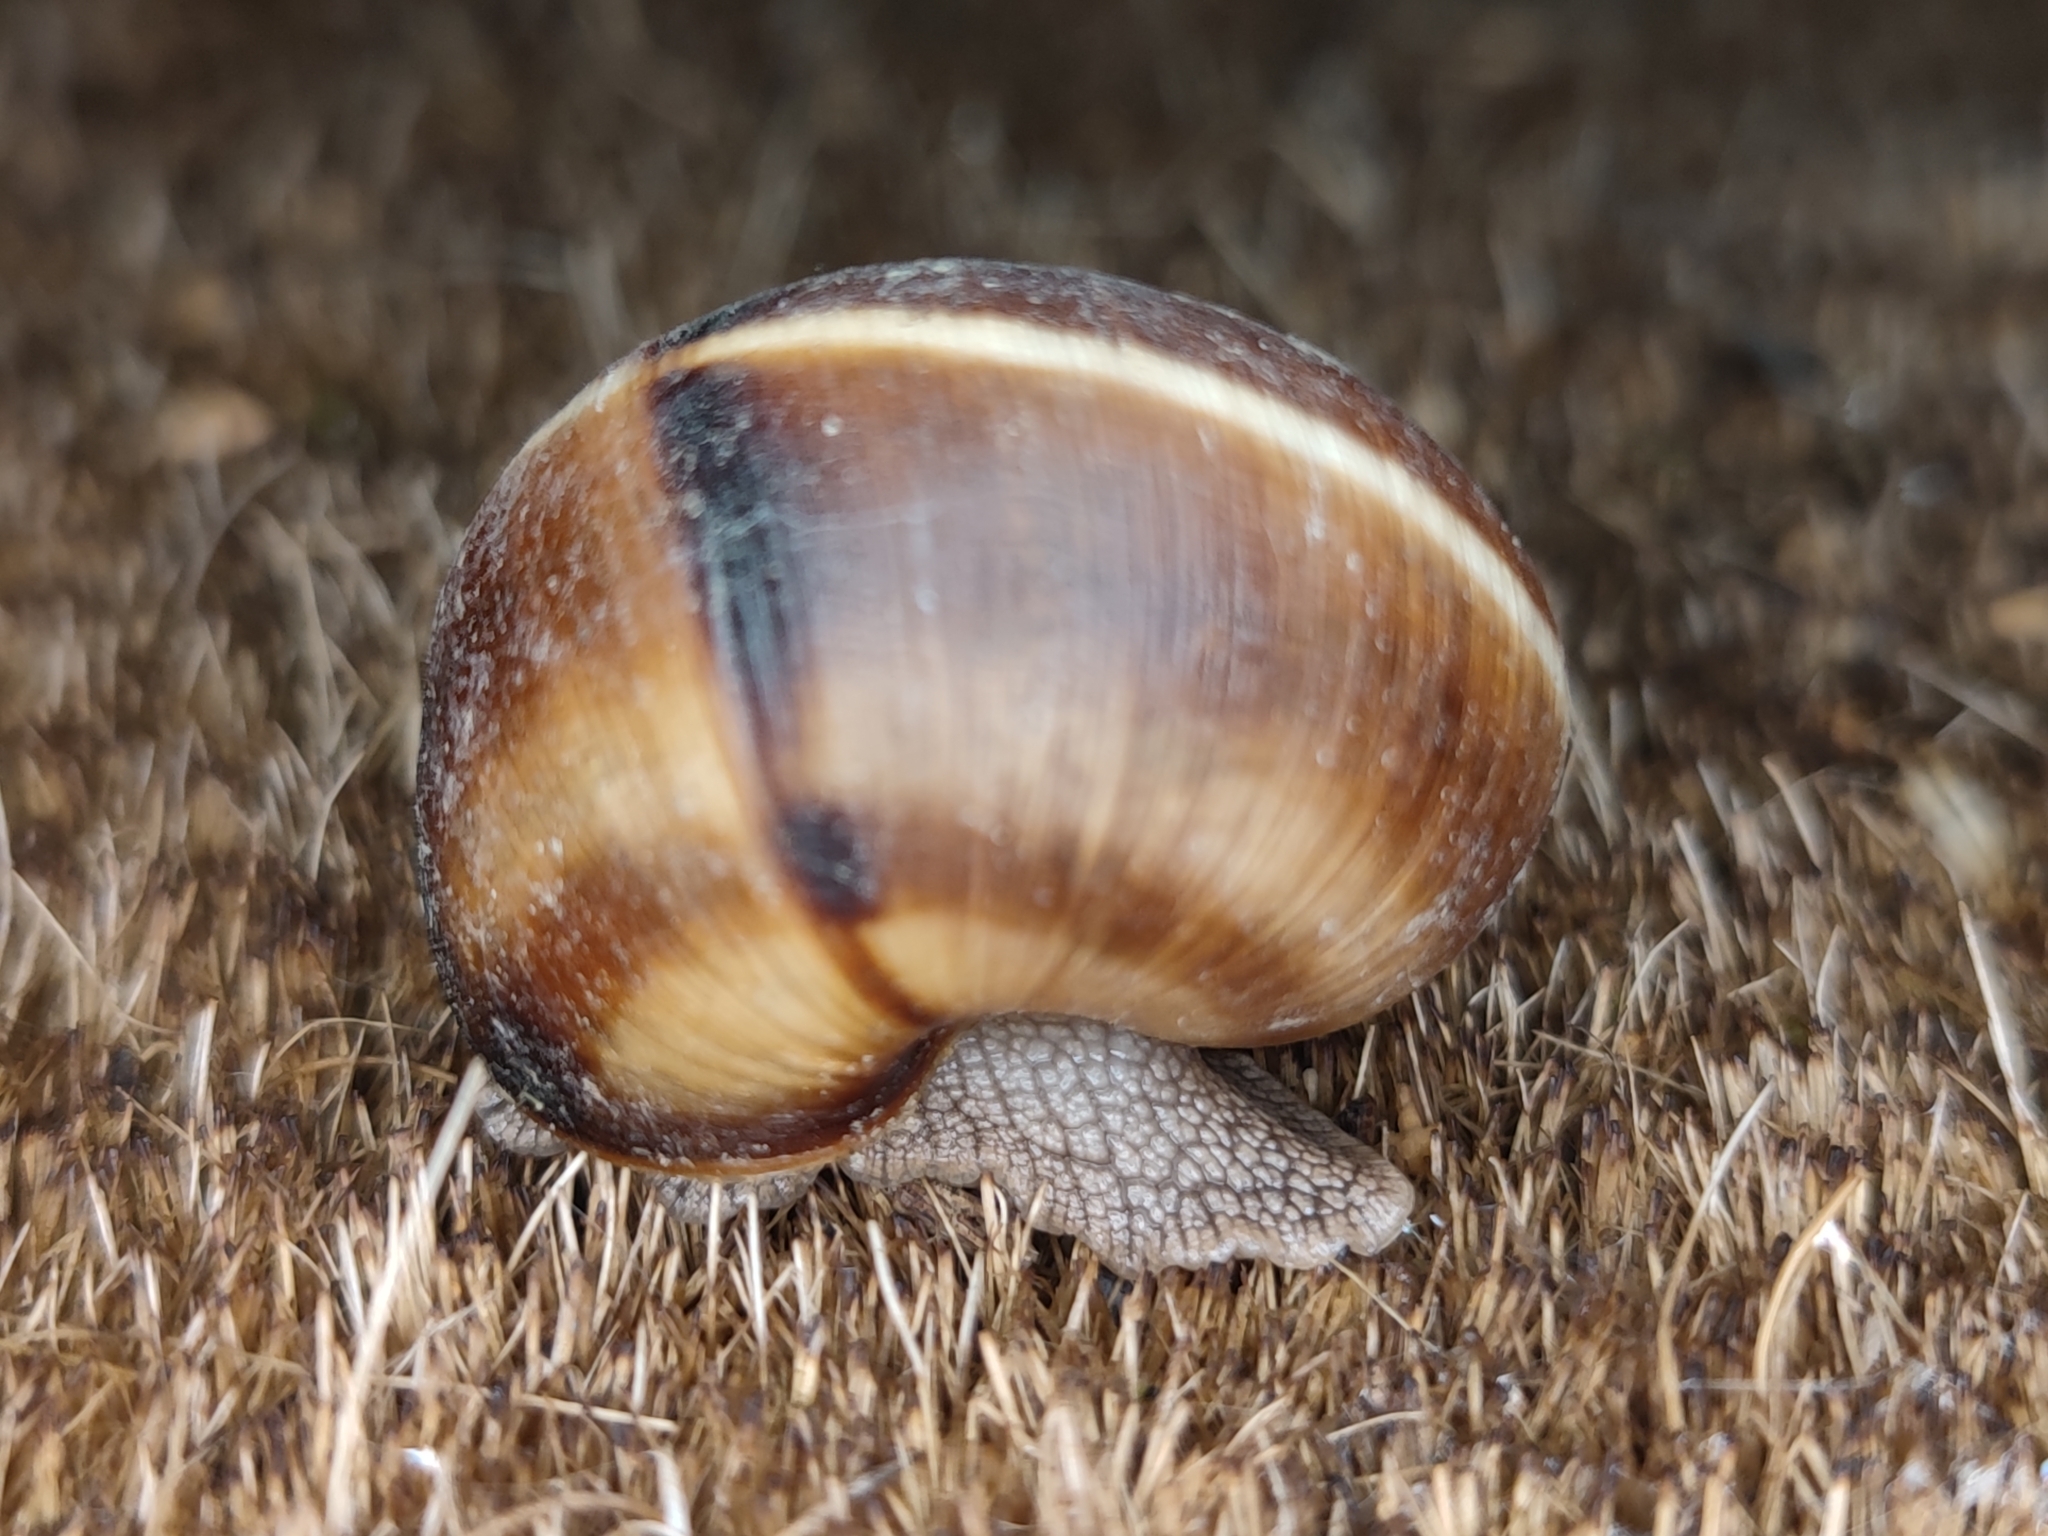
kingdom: Animalia
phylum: Mollusca
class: Gastropoda
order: Stylommatophora
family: Helicidae
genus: Helix
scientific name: Helix lucorum
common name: Turkish snail
